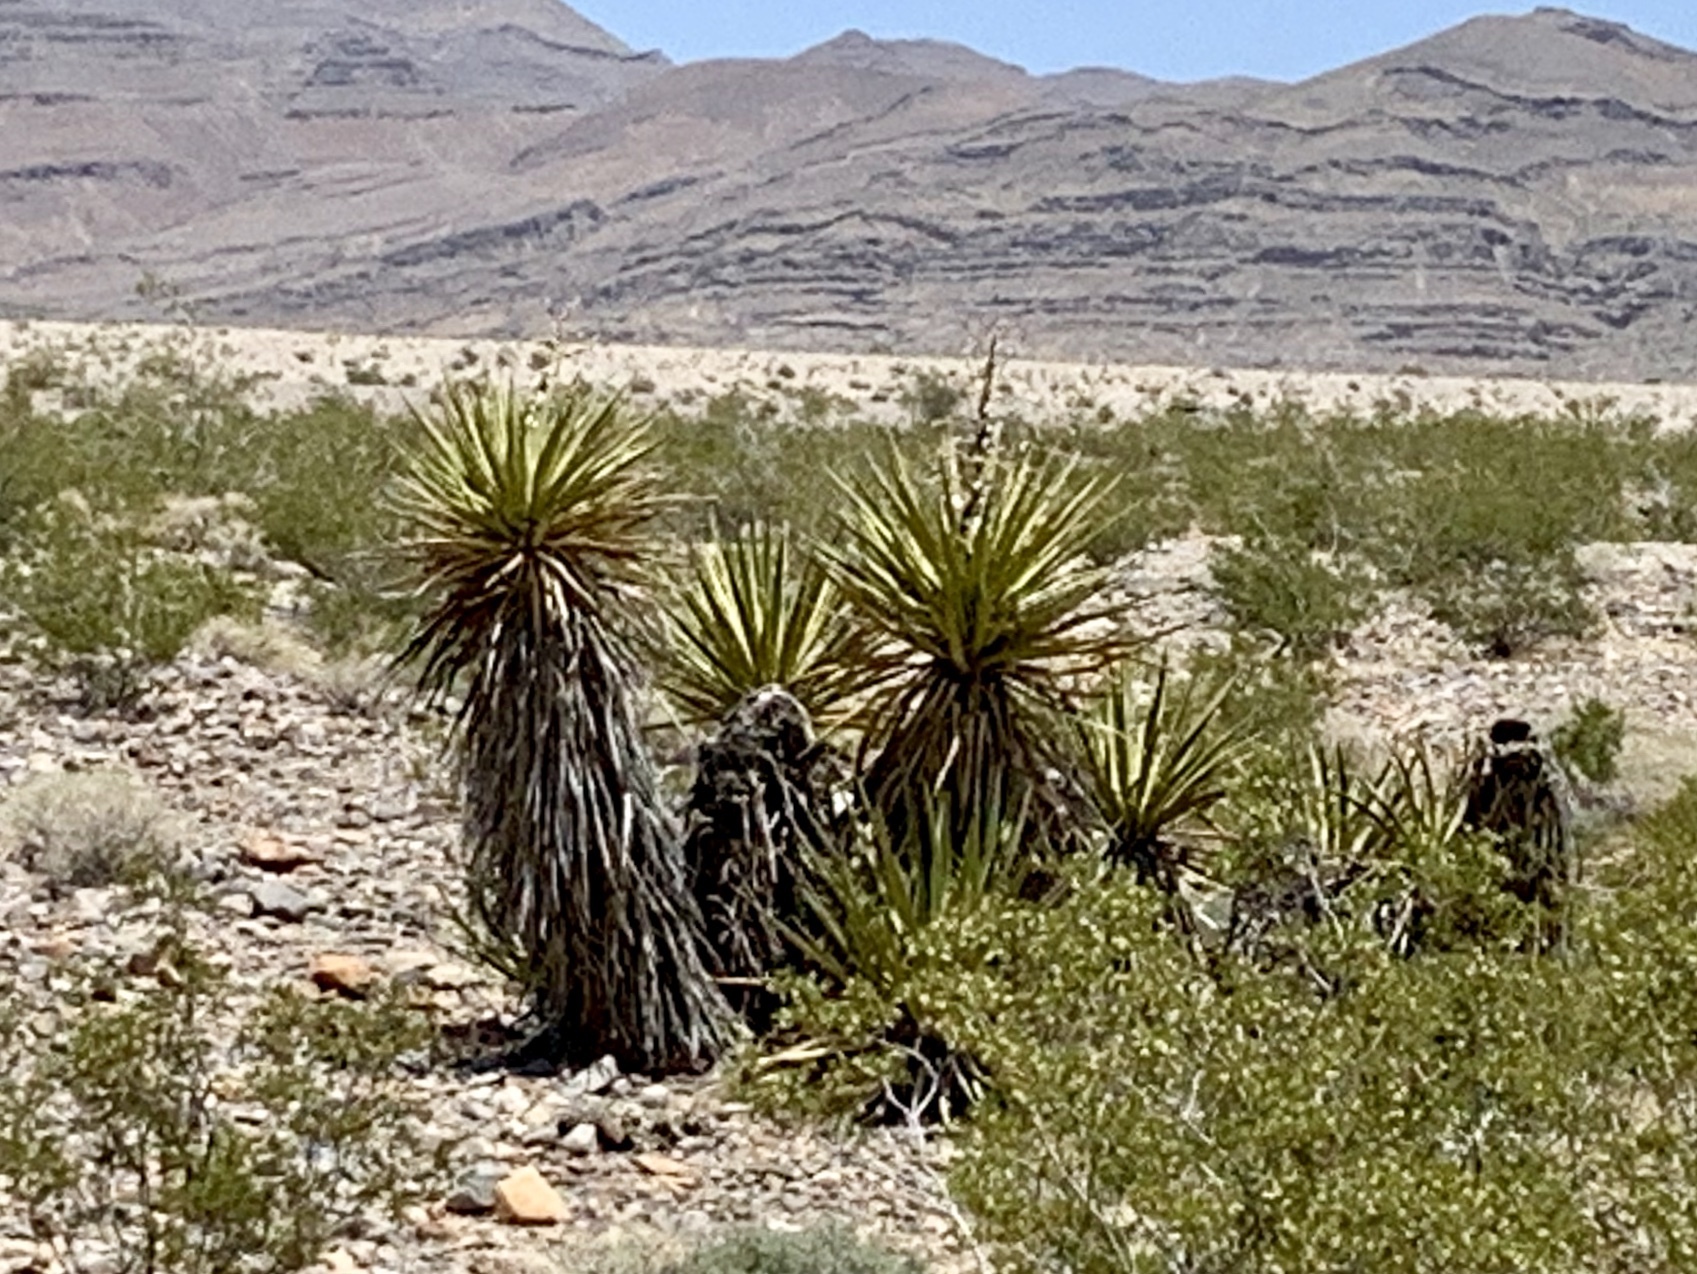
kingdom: Plantae
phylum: Tracheophyta
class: Liliopsida
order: Asparagales
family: Asparagaceae
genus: Yucca
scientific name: Yucca schidigera
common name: Mojave yucca
